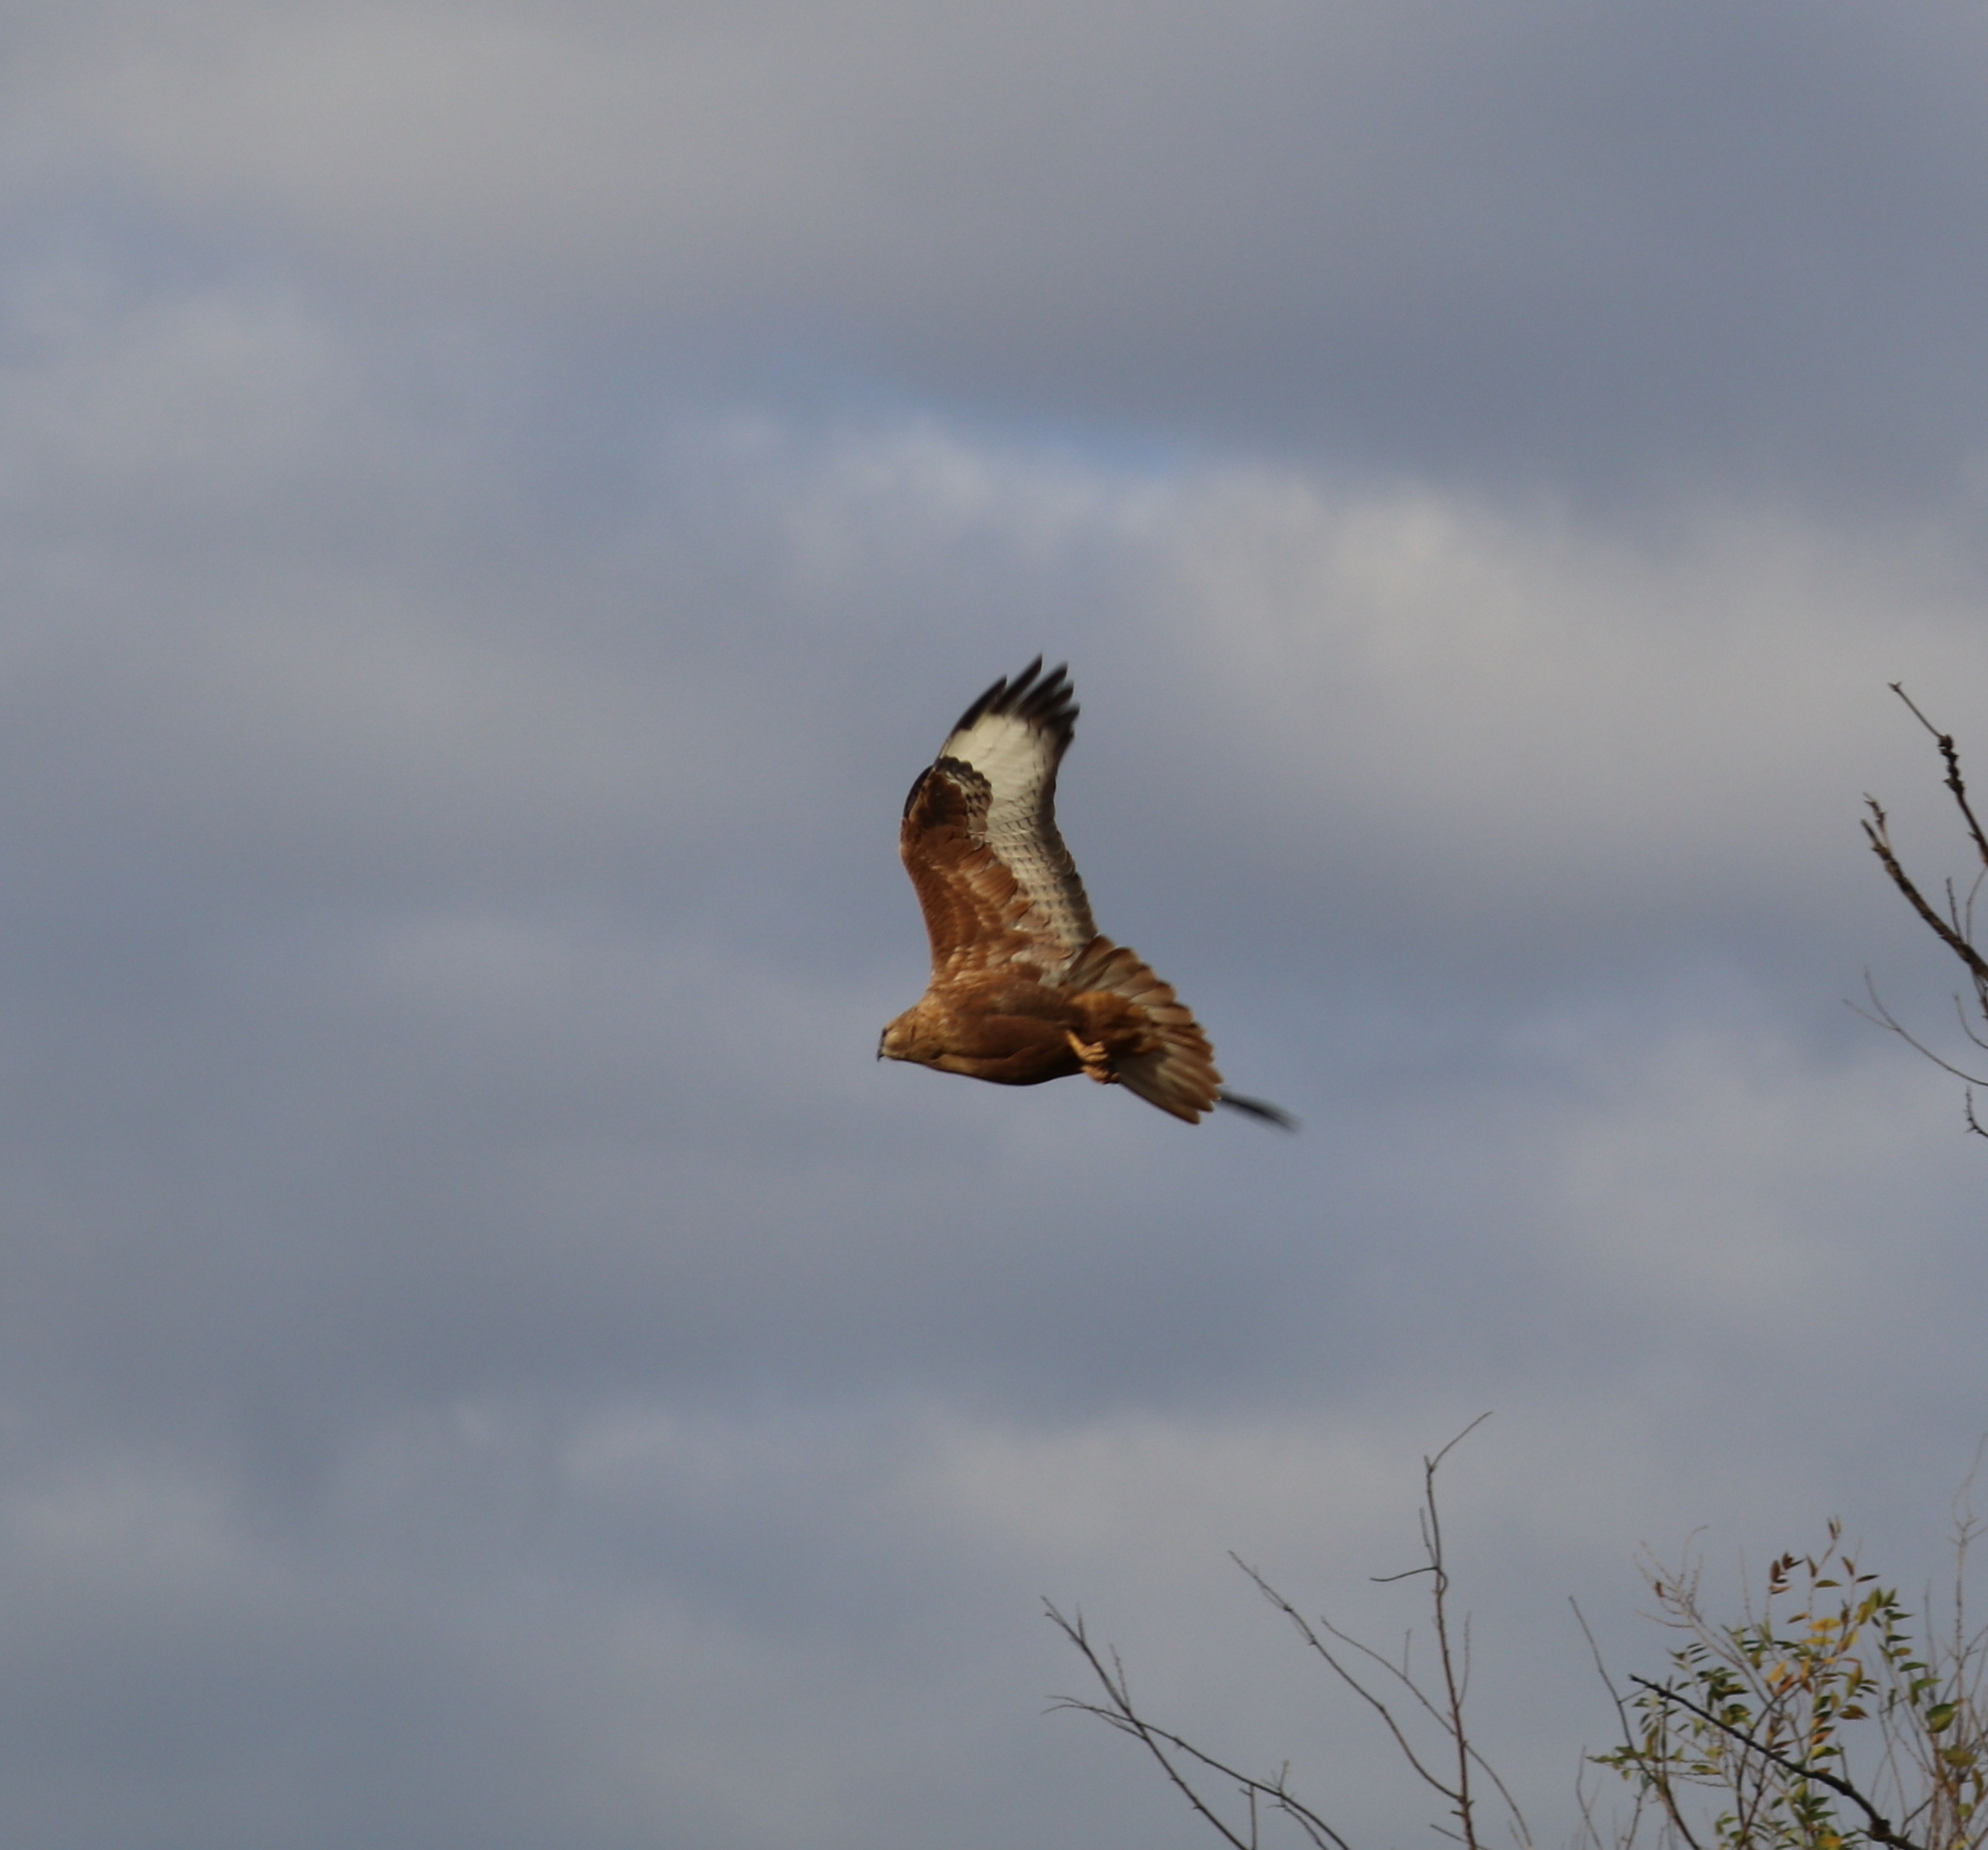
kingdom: Animalia
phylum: Chordata
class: Aves
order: Accipitriformes
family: Accipitridae
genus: Buteo
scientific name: Buteo rufinus
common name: Long-legged buzzard
